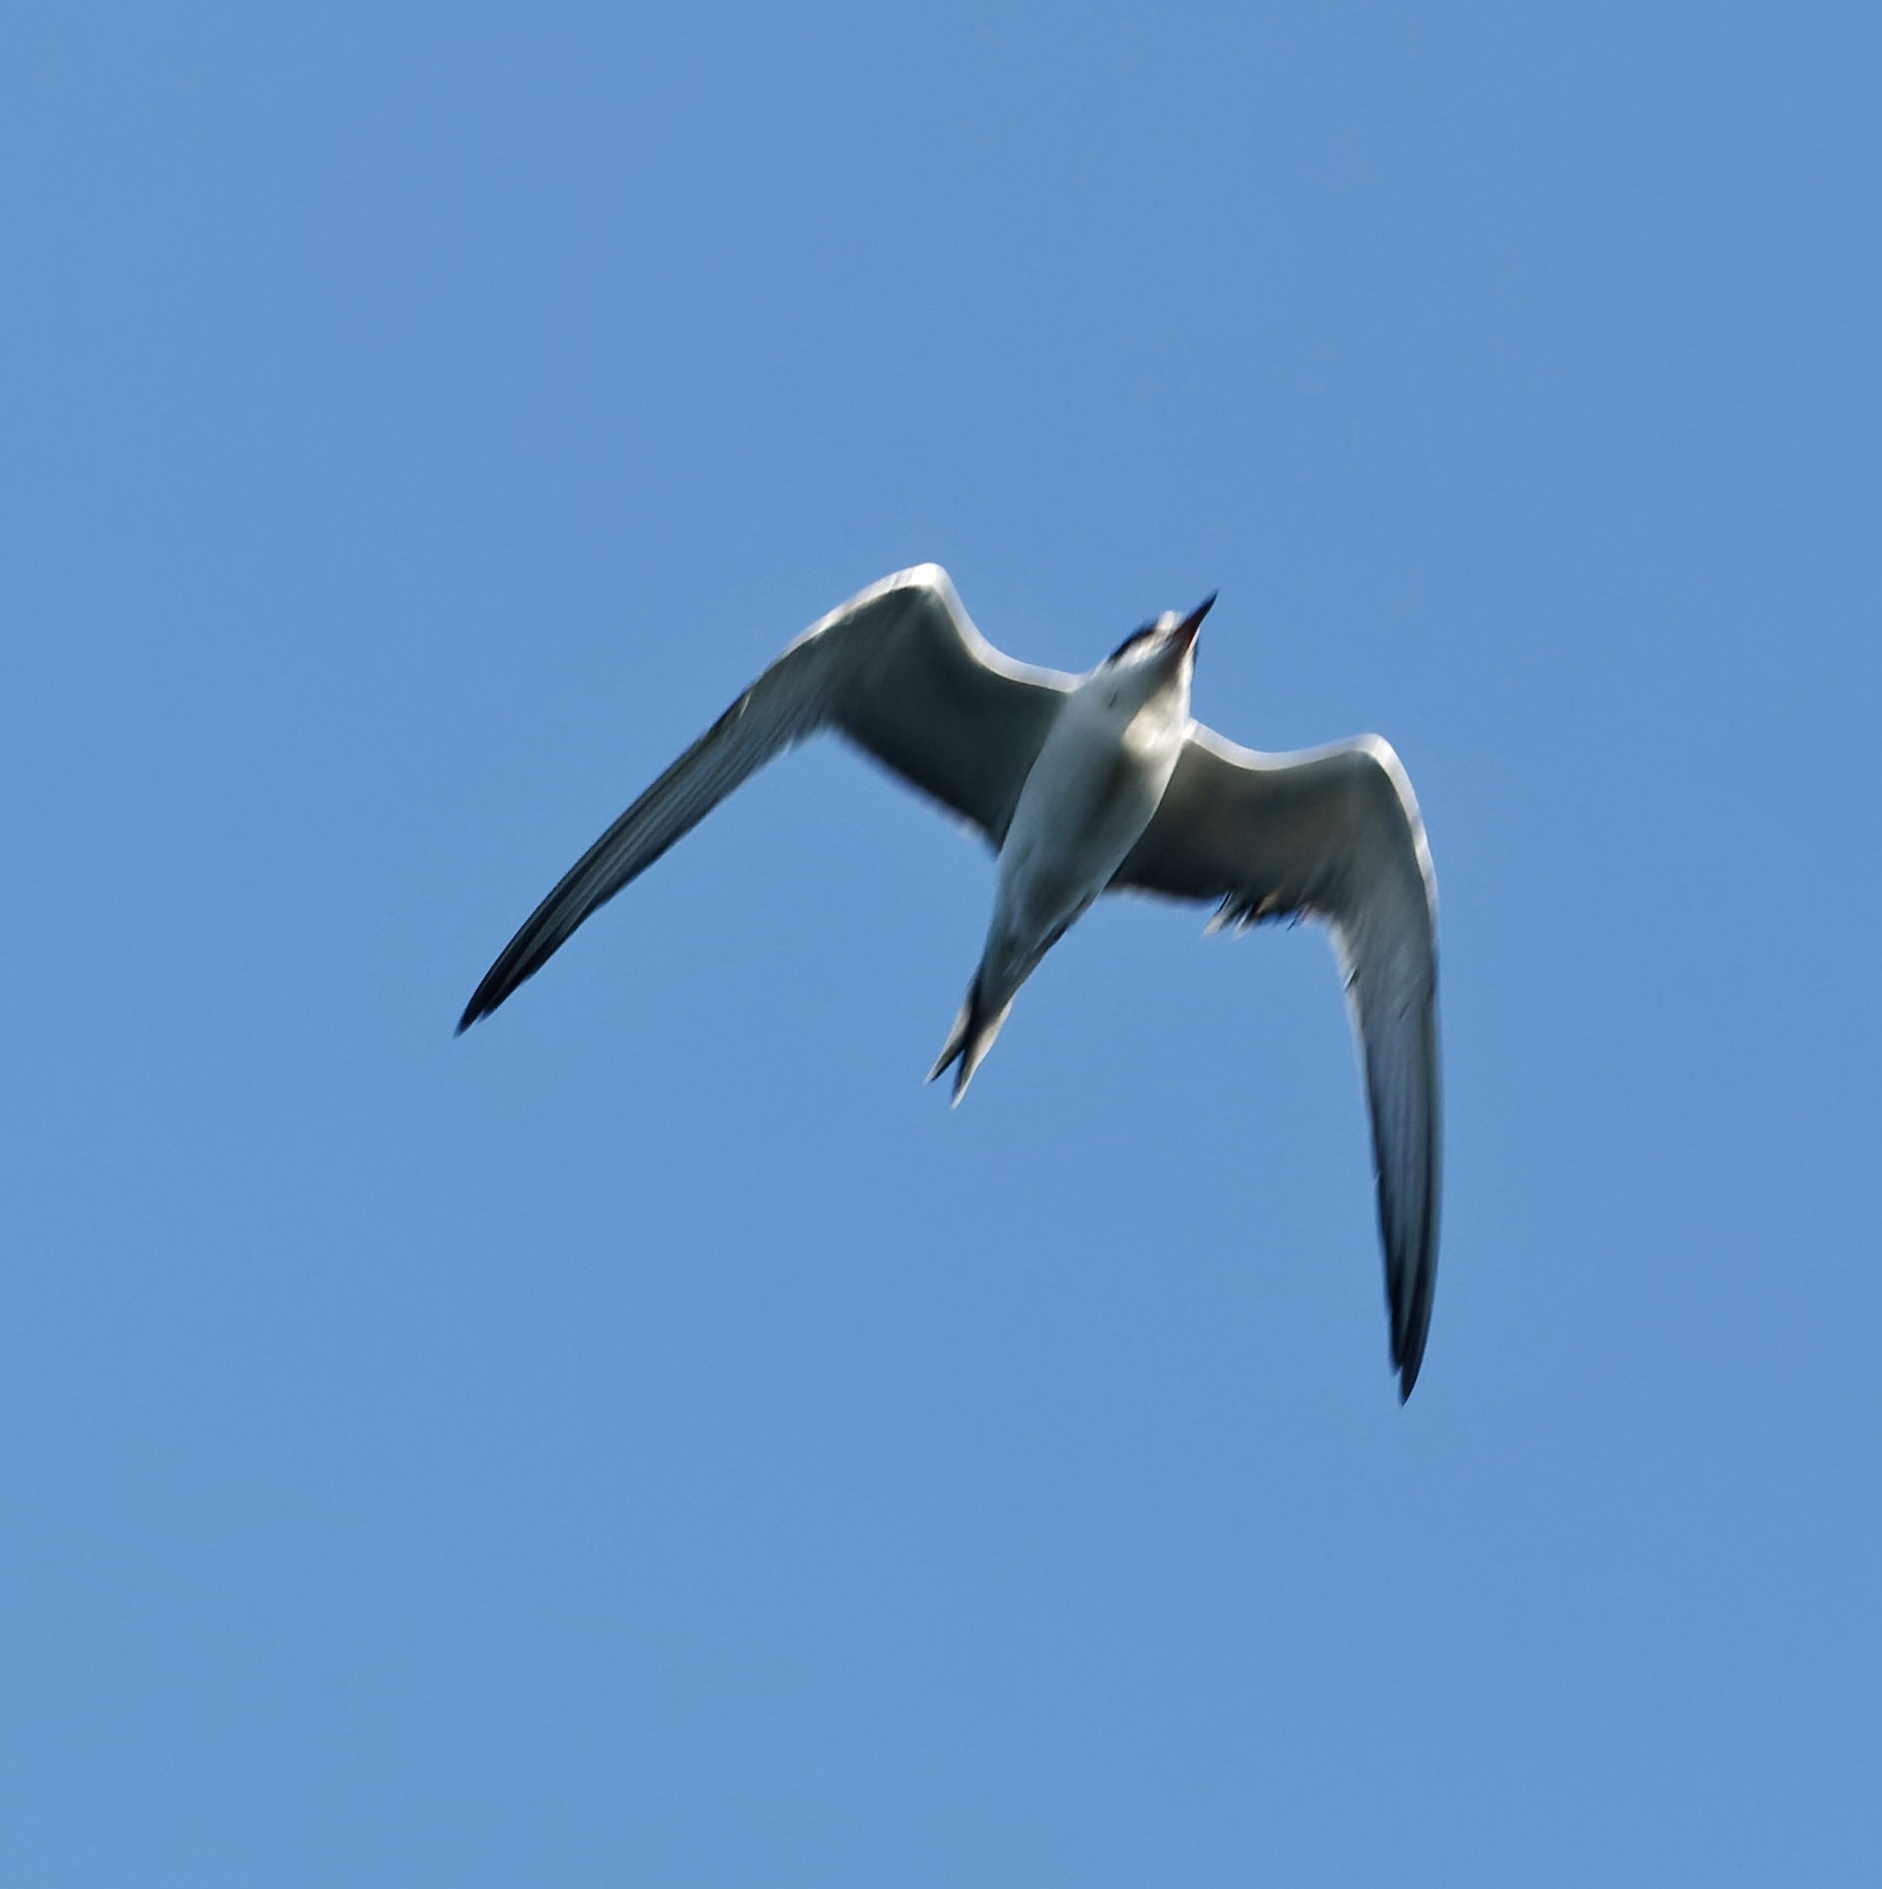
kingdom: Animalia
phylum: Chordata
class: Aves
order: Charadriiformes
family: Laridae
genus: Sterna
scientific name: Sterna hirundo
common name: Common tern
